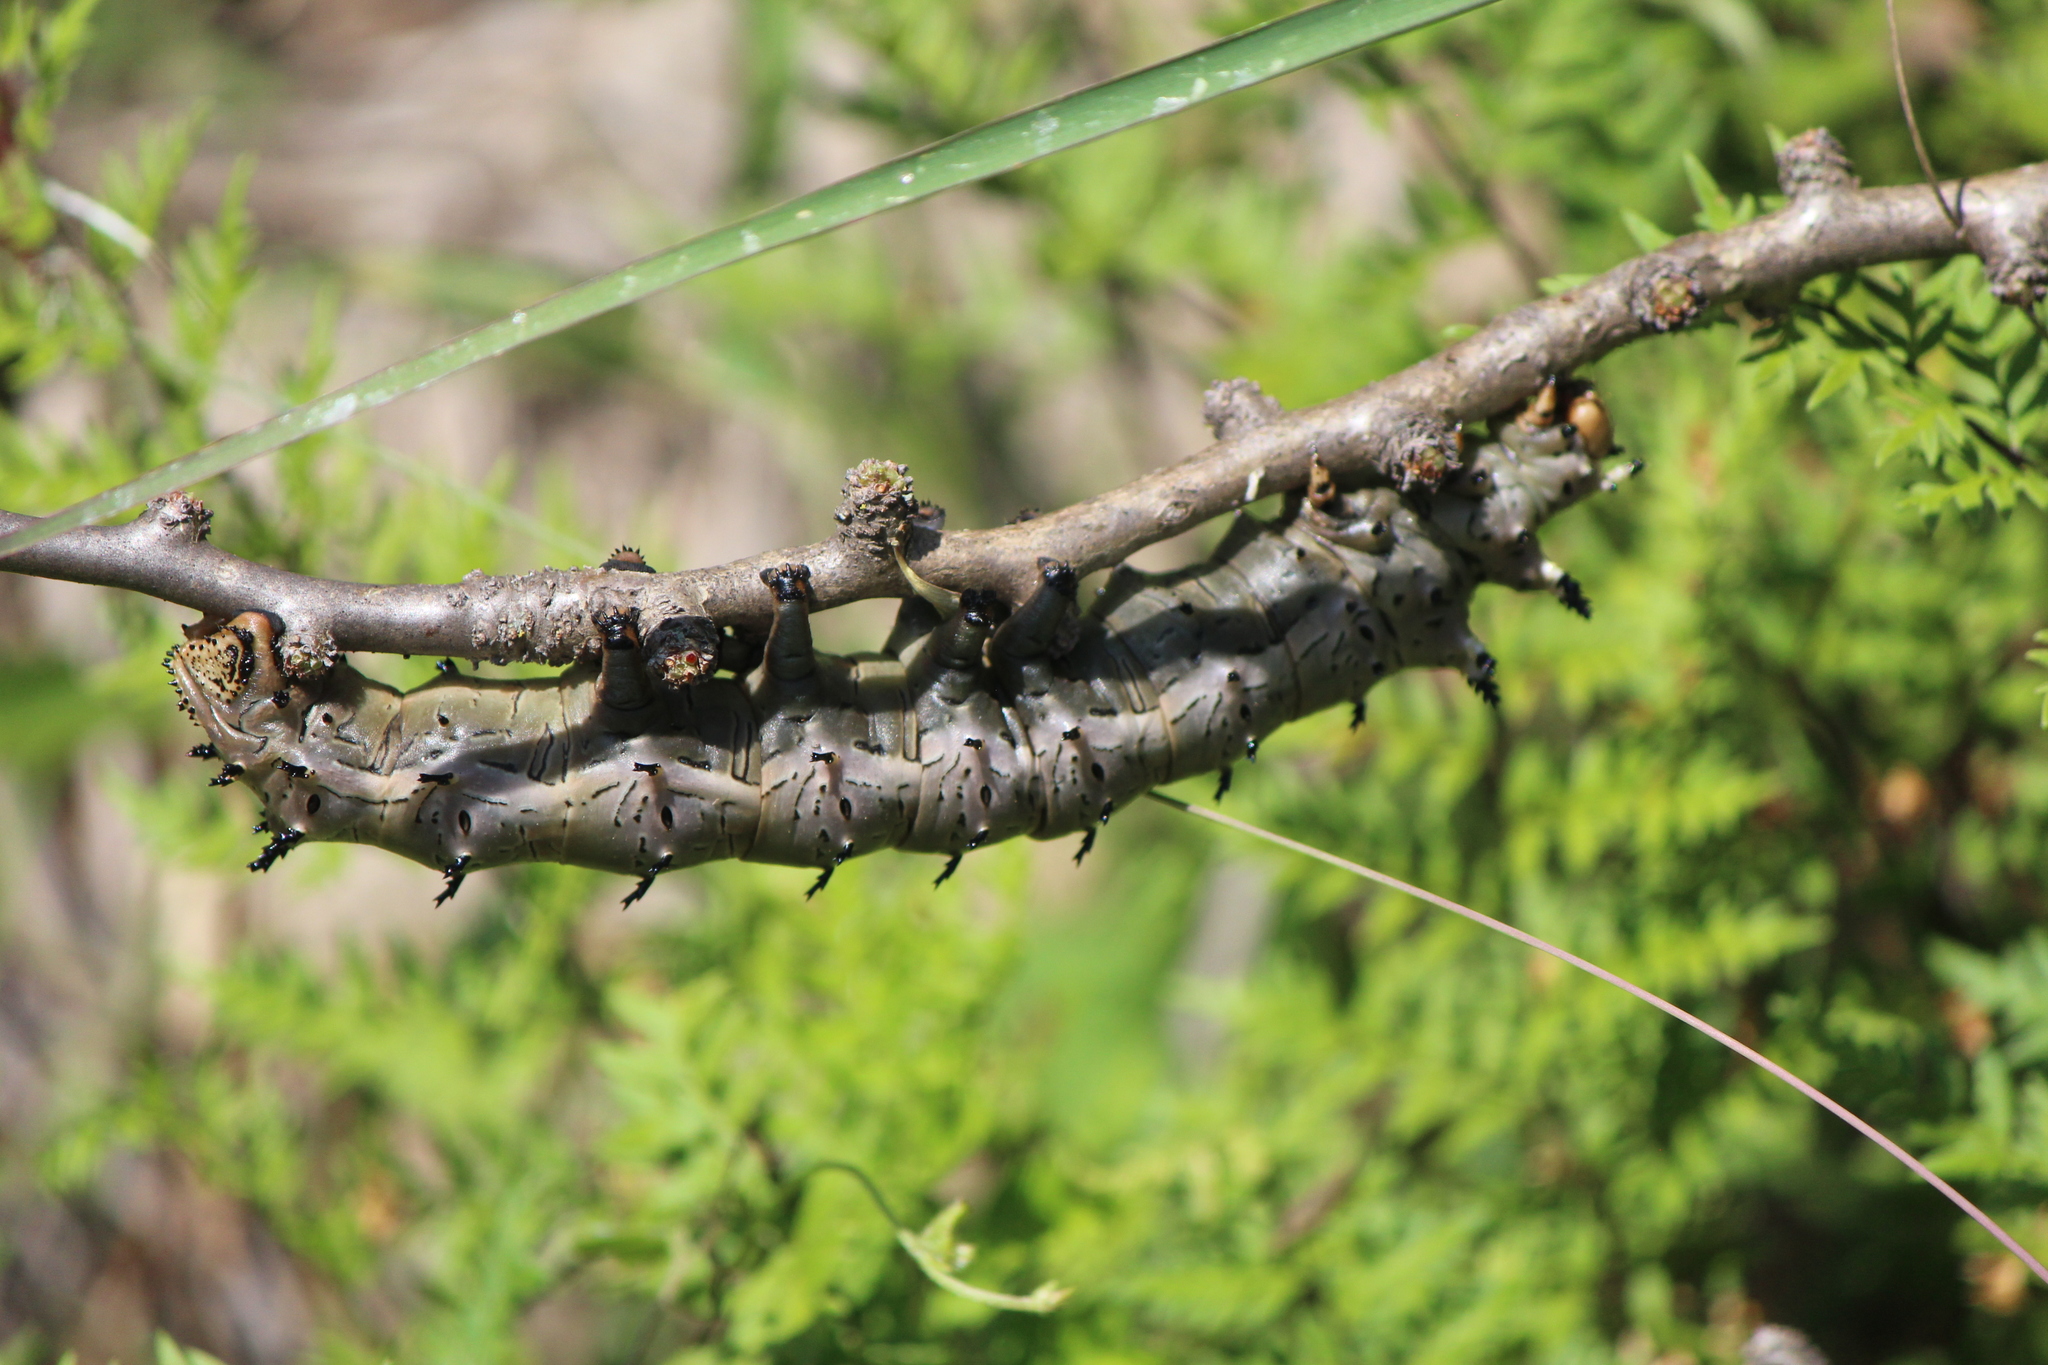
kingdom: Animalia
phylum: Arthropoda
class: Insecta
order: Lepidoptera
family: Saturniidae
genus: Citheronia
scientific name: Citheronia splendens
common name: Splendid royal moth
